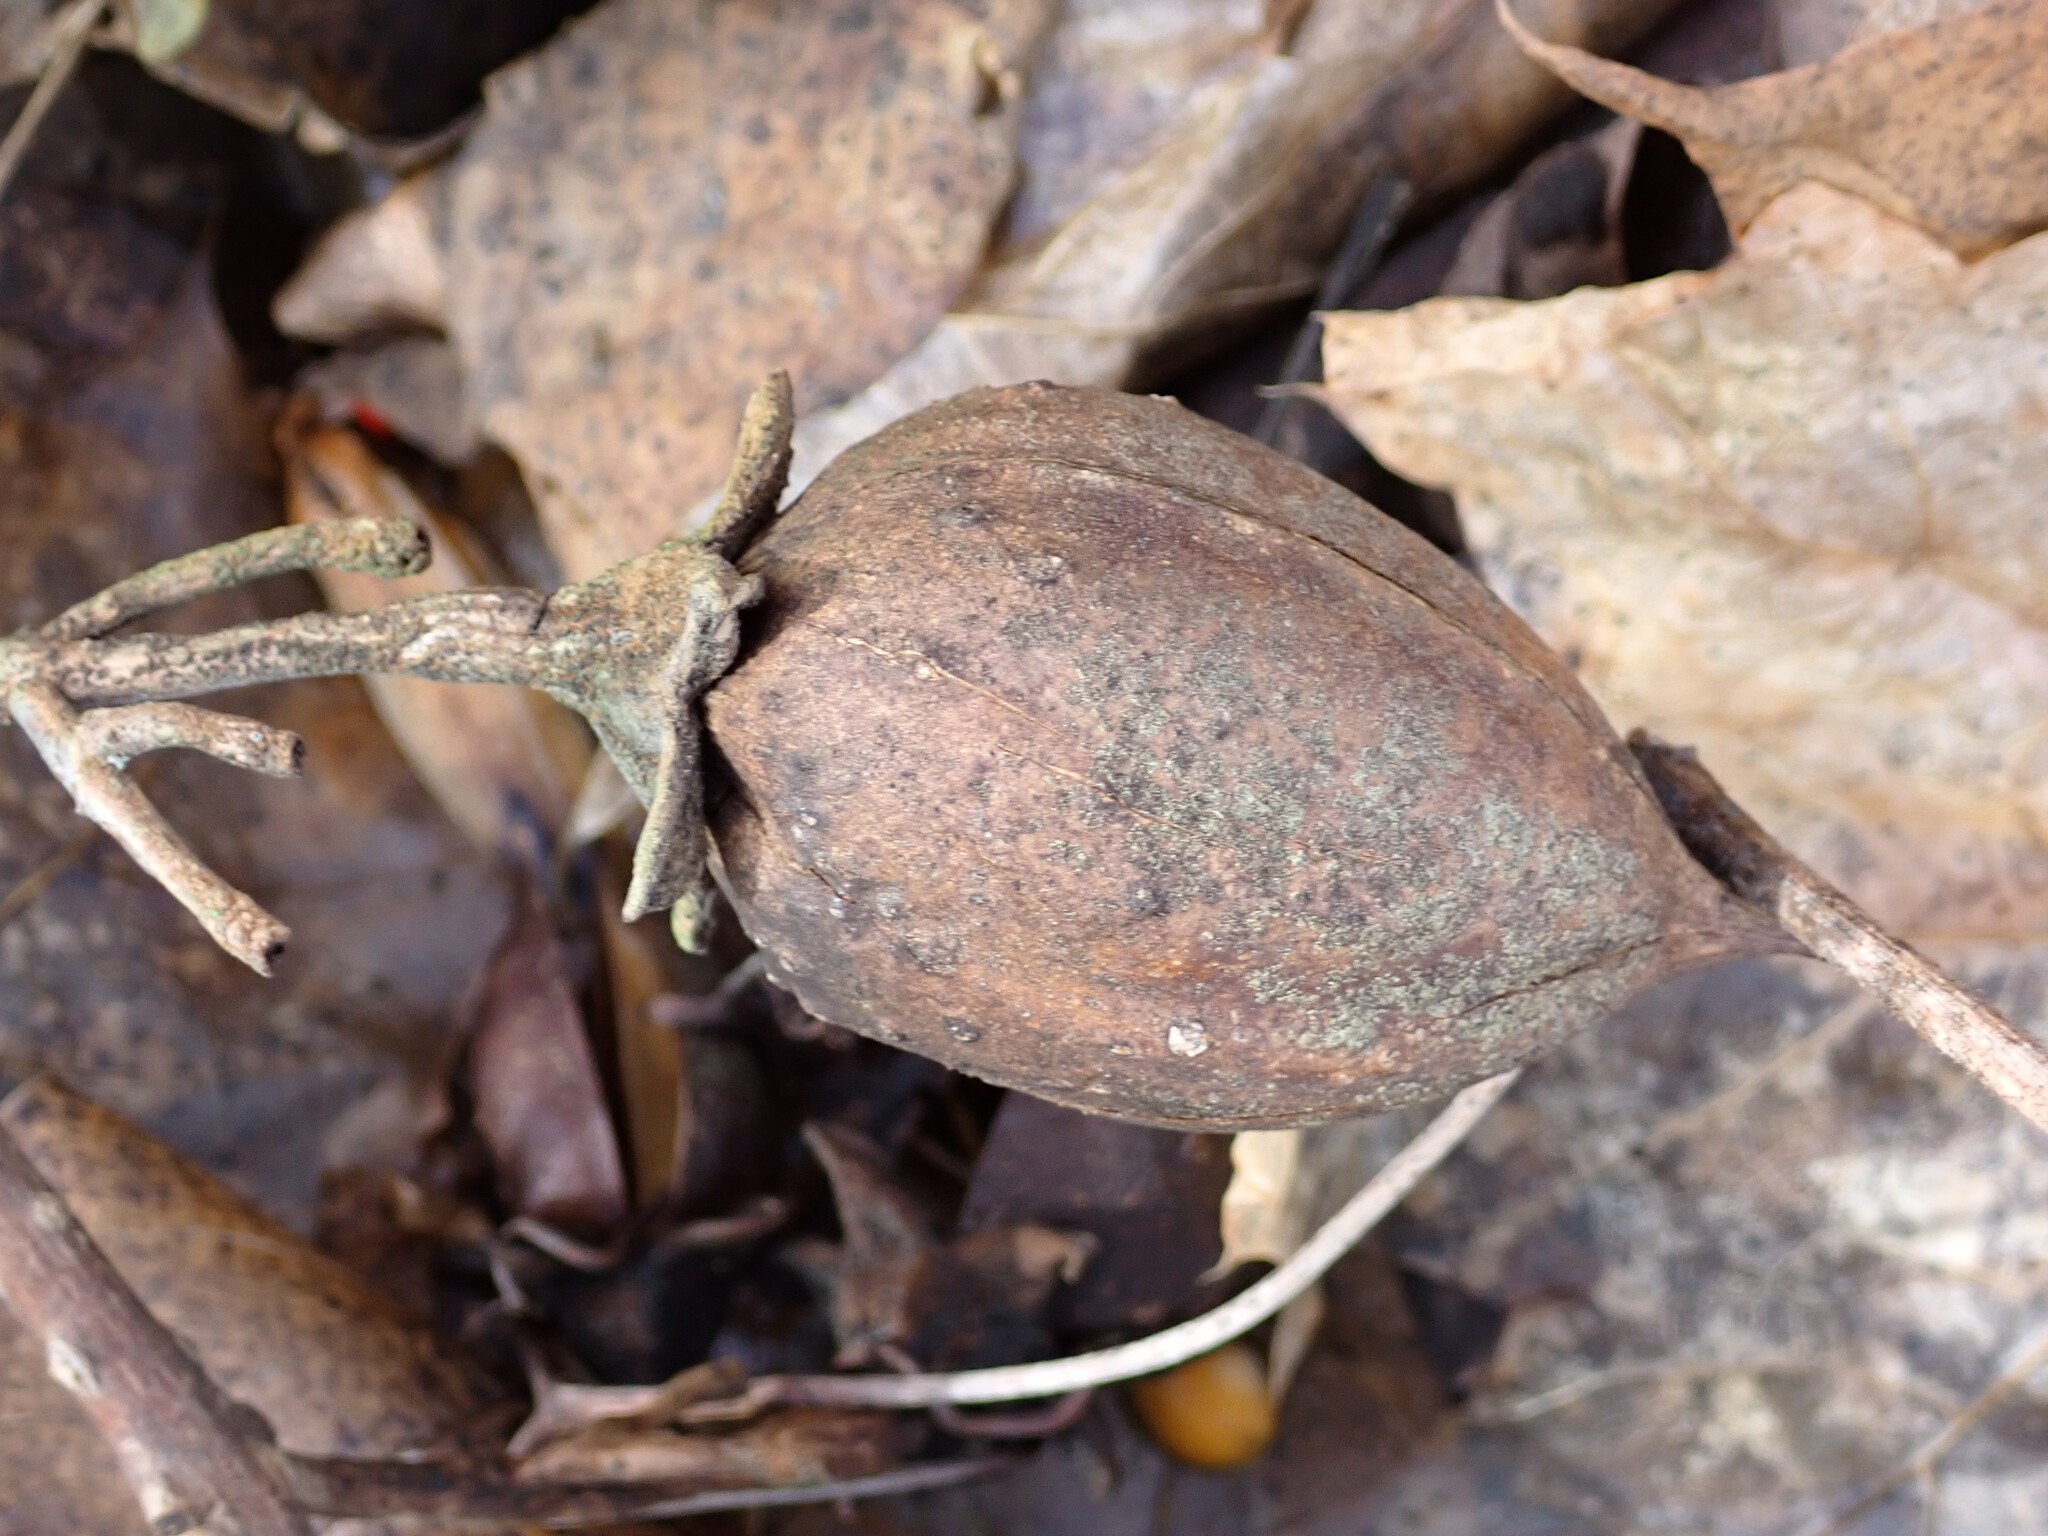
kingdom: Plantae
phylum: Tracheophyta
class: Magnoliopsida
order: Lamiales
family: Paulowniaceae
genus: Paulownia
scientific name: Paulownia tomentosa
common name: Foxglove-tree
